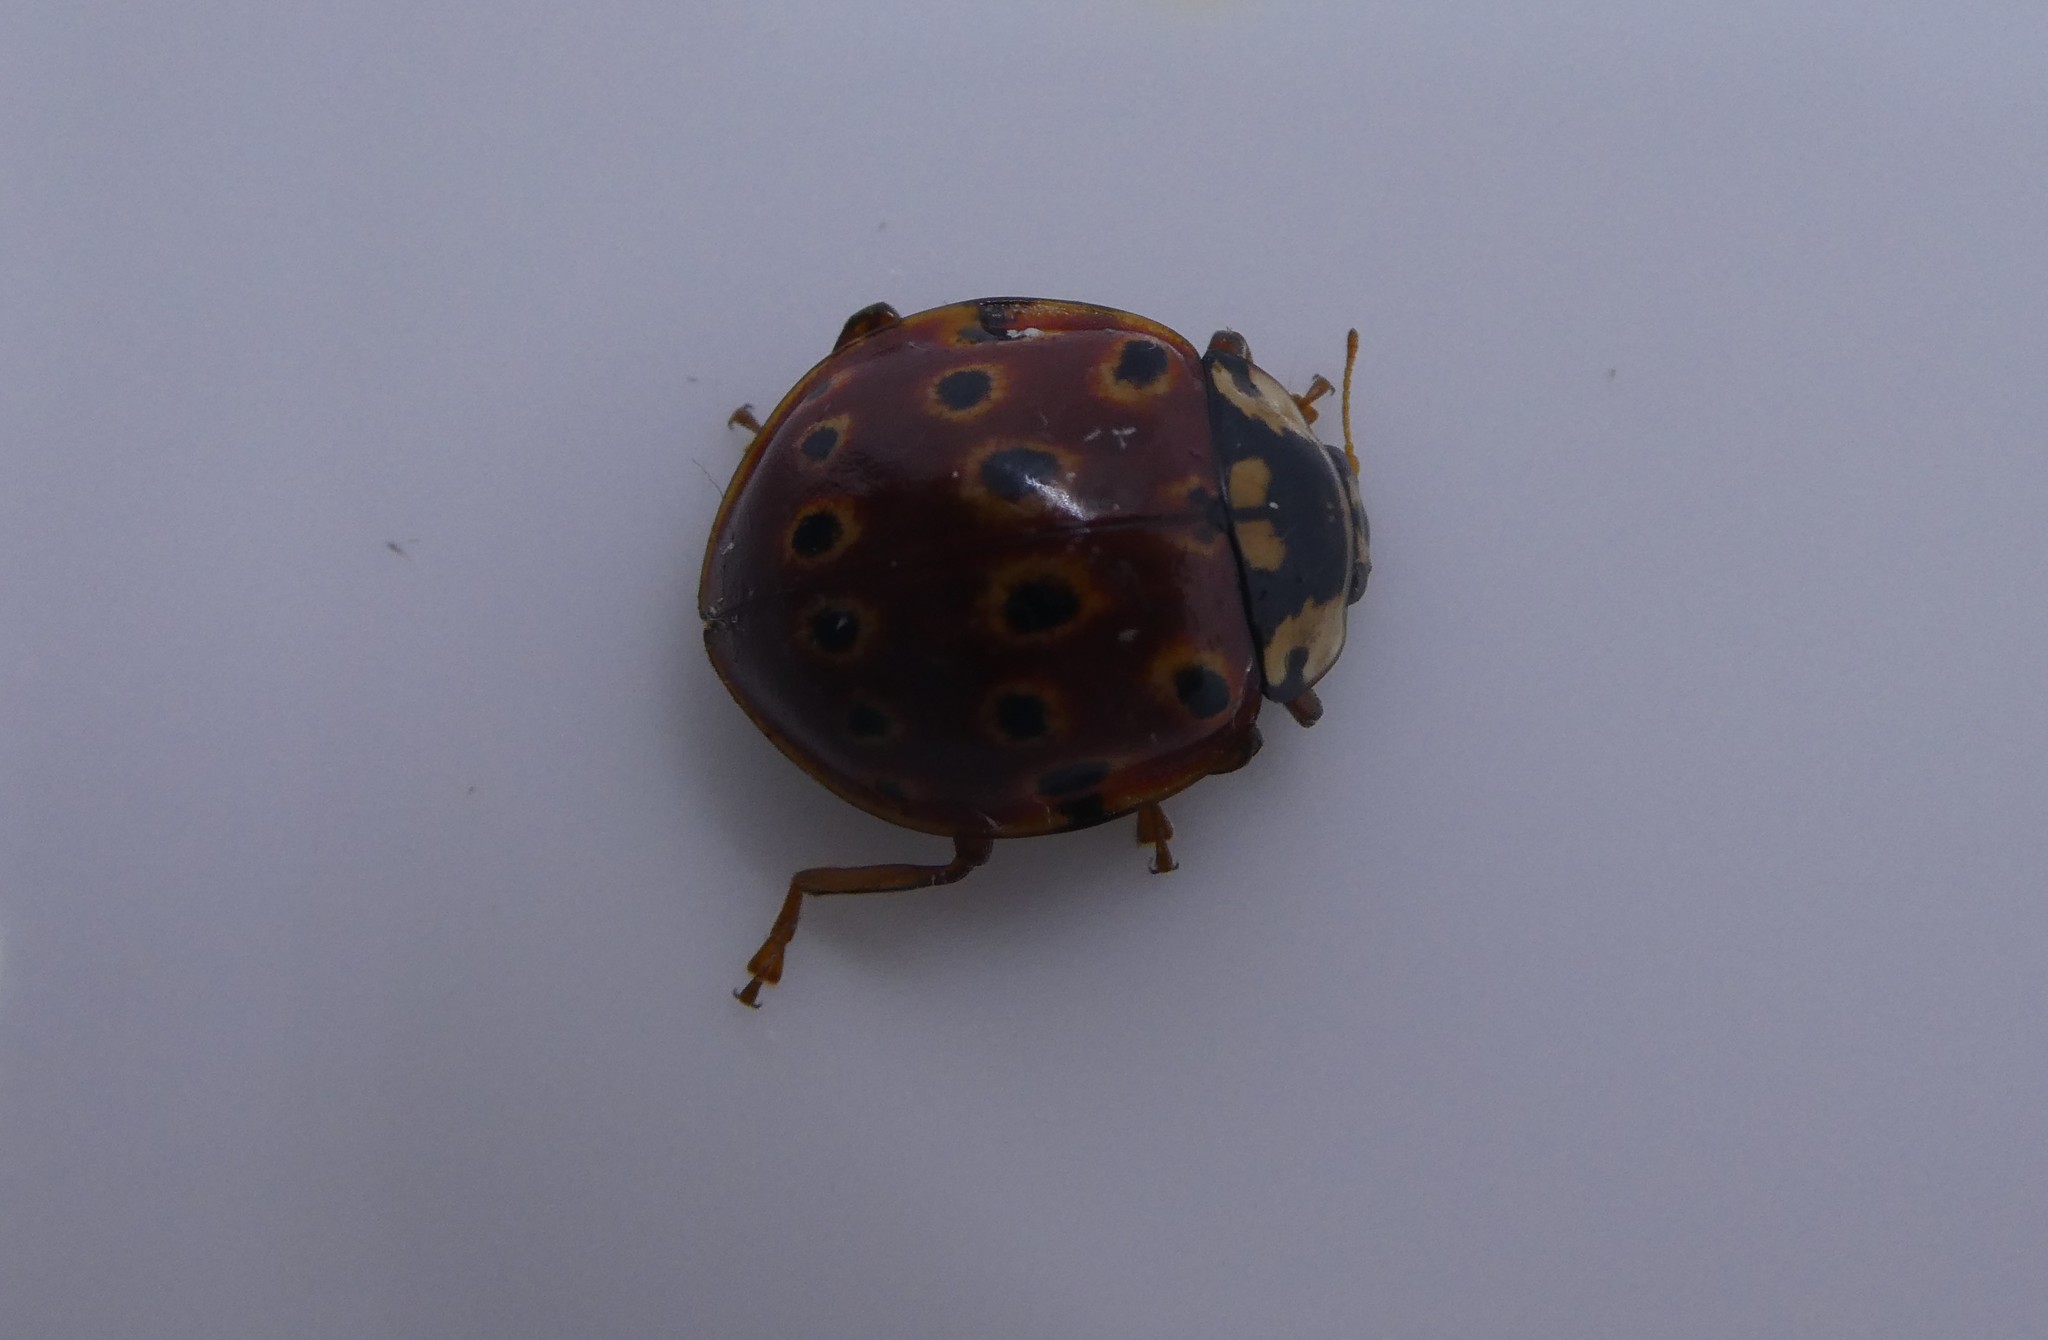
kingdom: Animalia
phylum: Arthropoda
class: Insecta
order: Coleoptera
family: Coccinellidae
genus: Anatis
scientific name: Anatis mali
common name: Eye-spotted lady beetle
